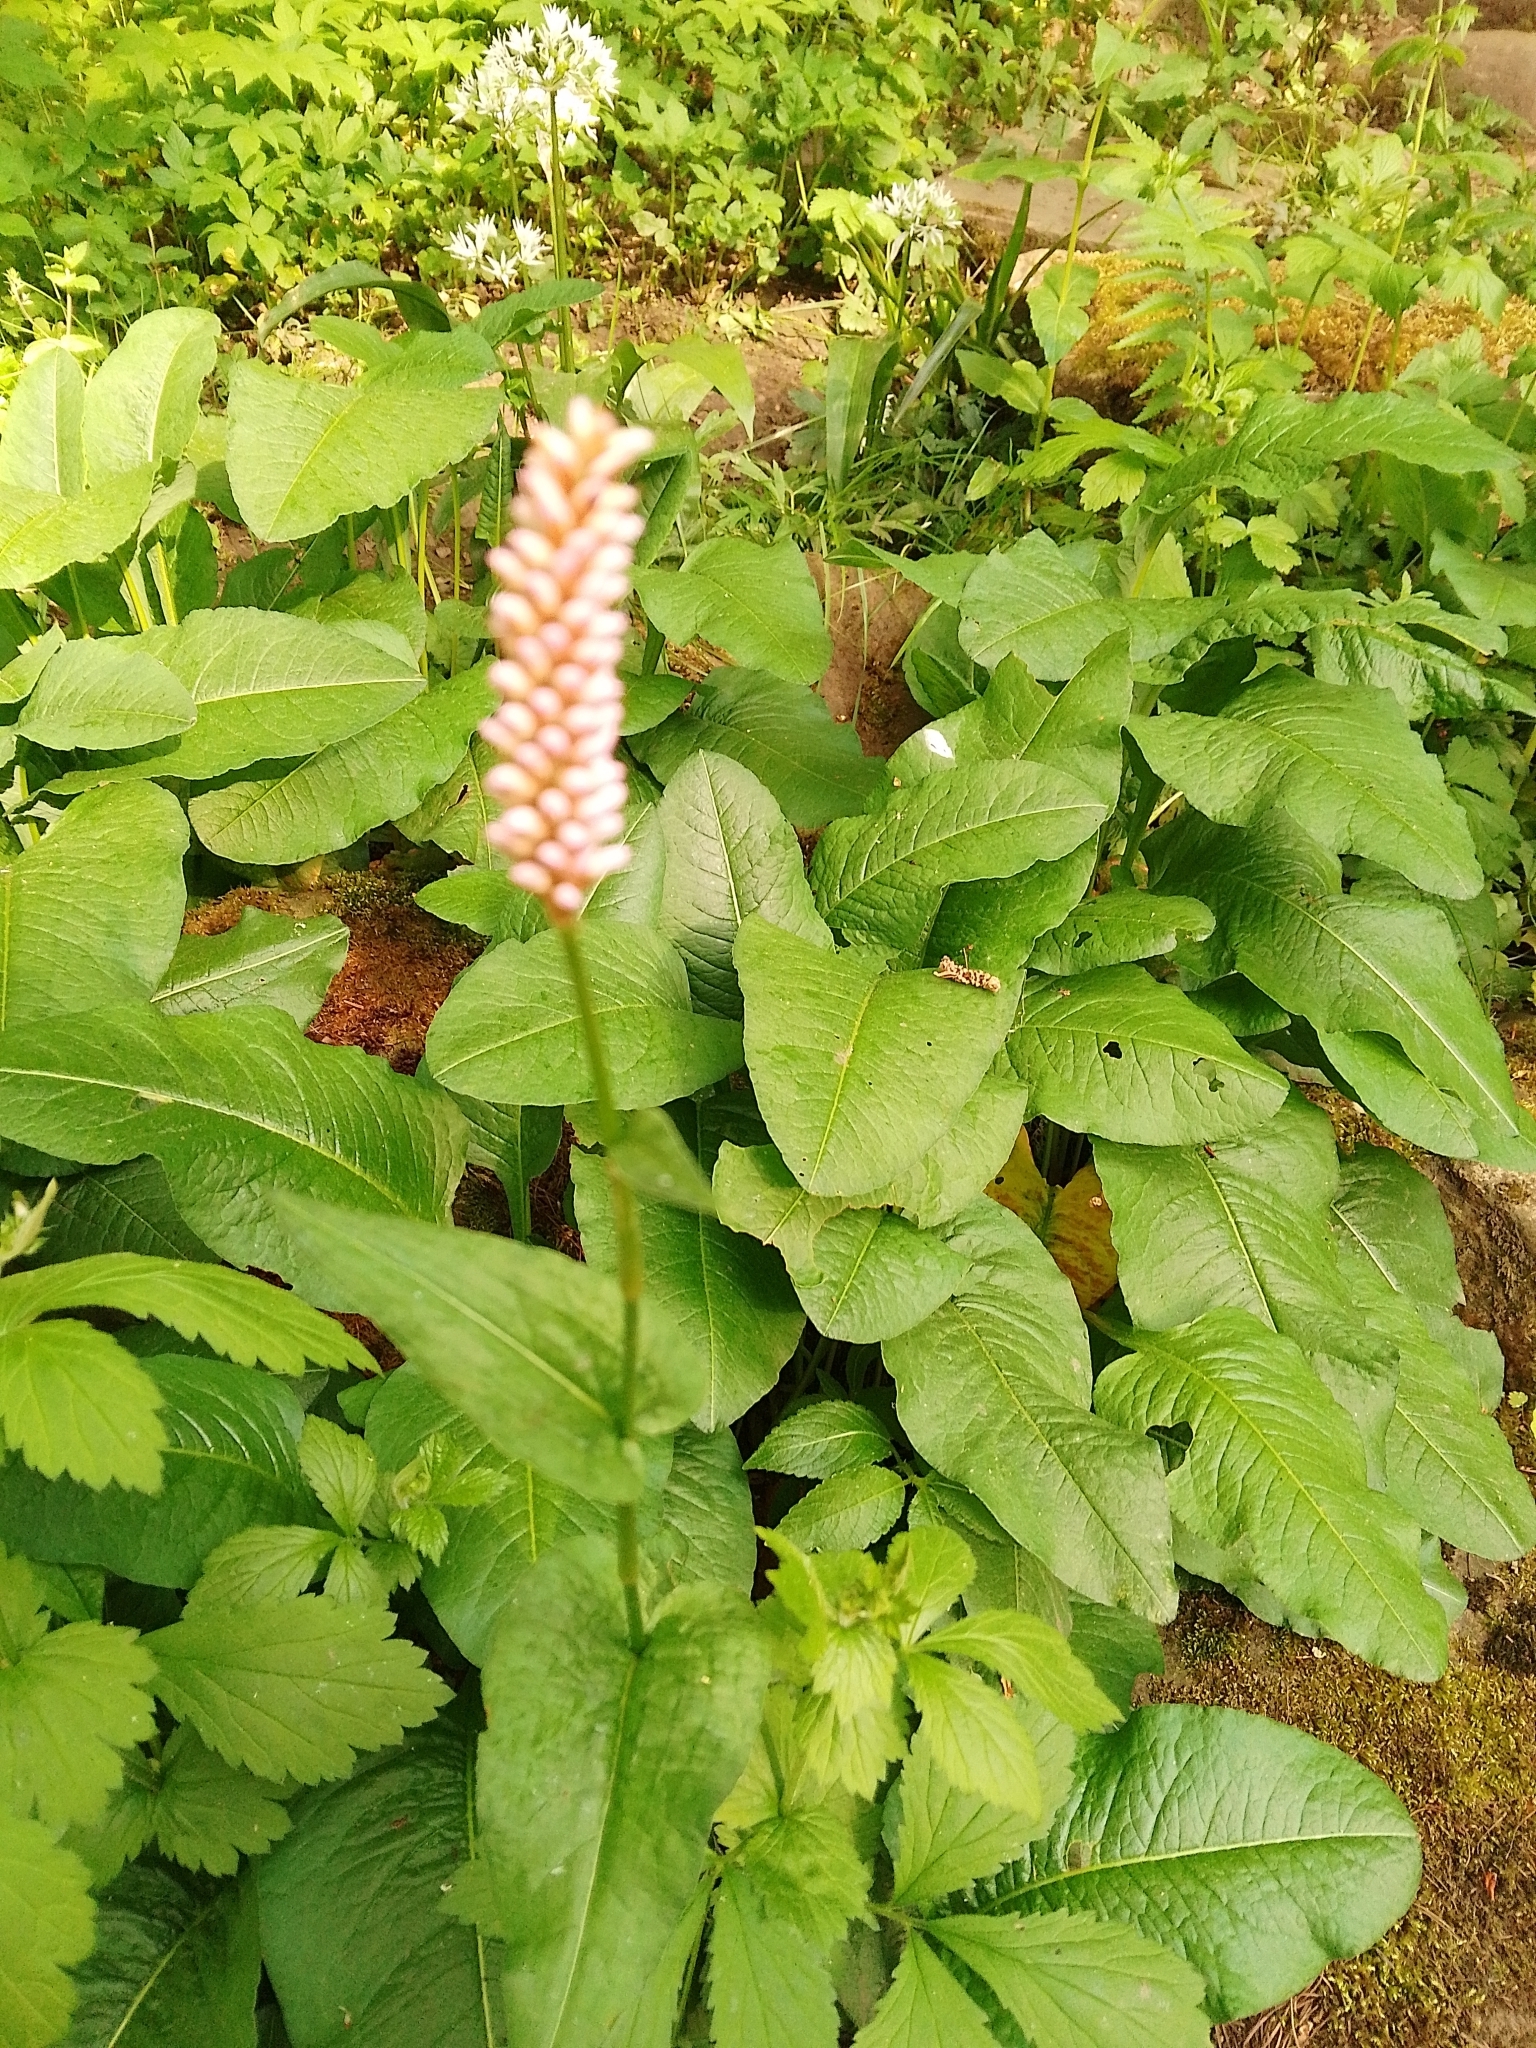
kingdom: Plantae
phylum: Tracheophyta
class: Magnoliopsida
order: Caryophyllales
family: Polygonaceae
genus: Bistorta
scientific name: Bistorta officinalis
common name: Common bistort
